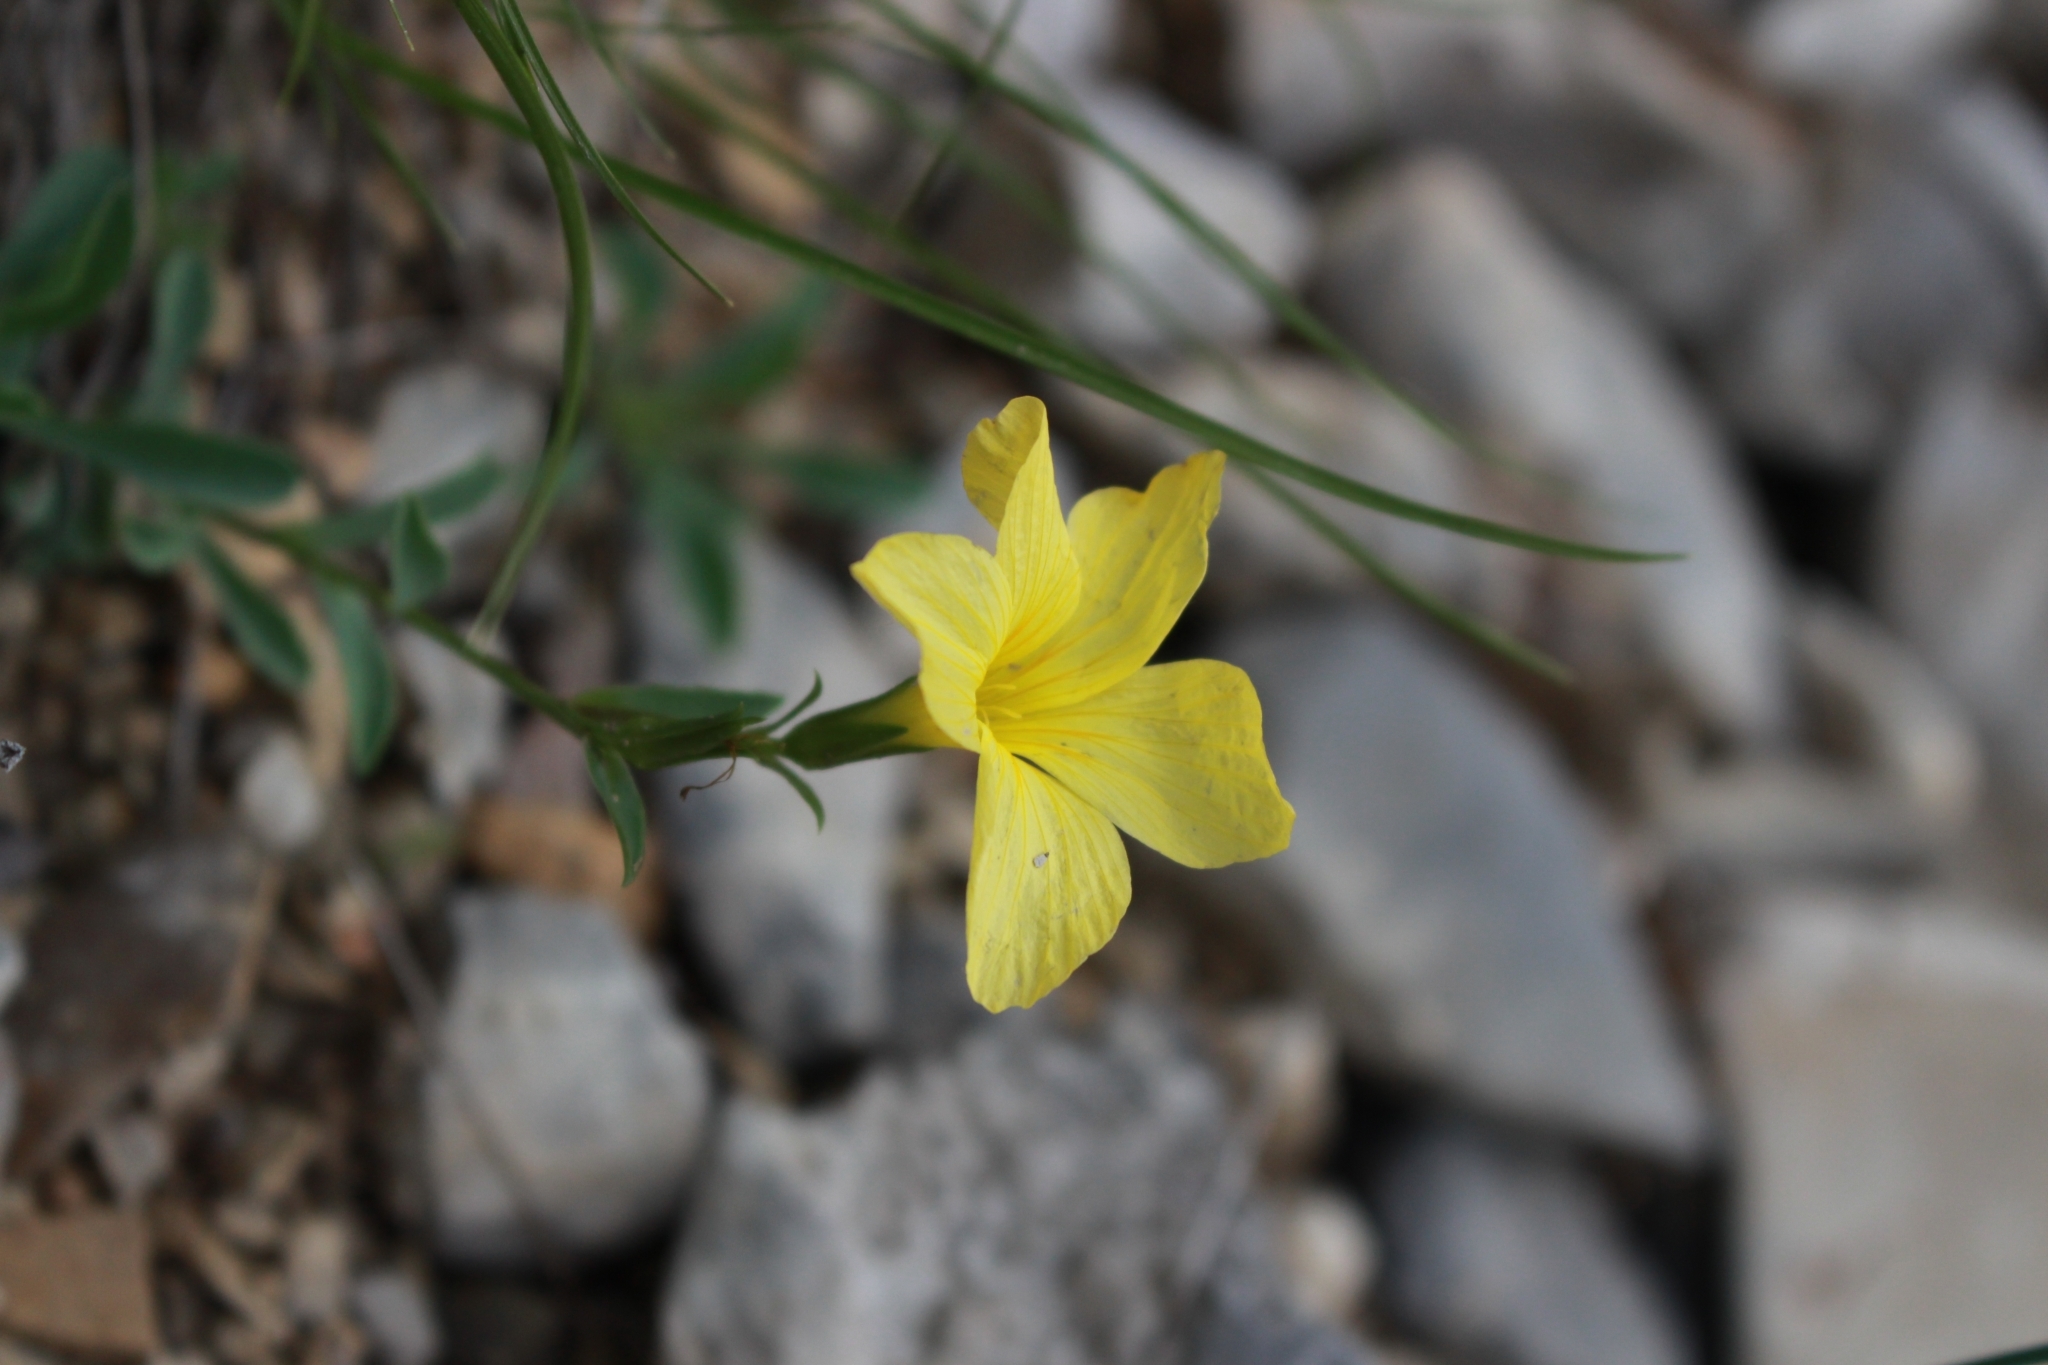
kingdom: Plantae
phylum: Tracheophyta
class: Magnoliopsida
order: Malpighiales
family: Linaceae
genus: Linum
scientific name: Linum campanulatum
